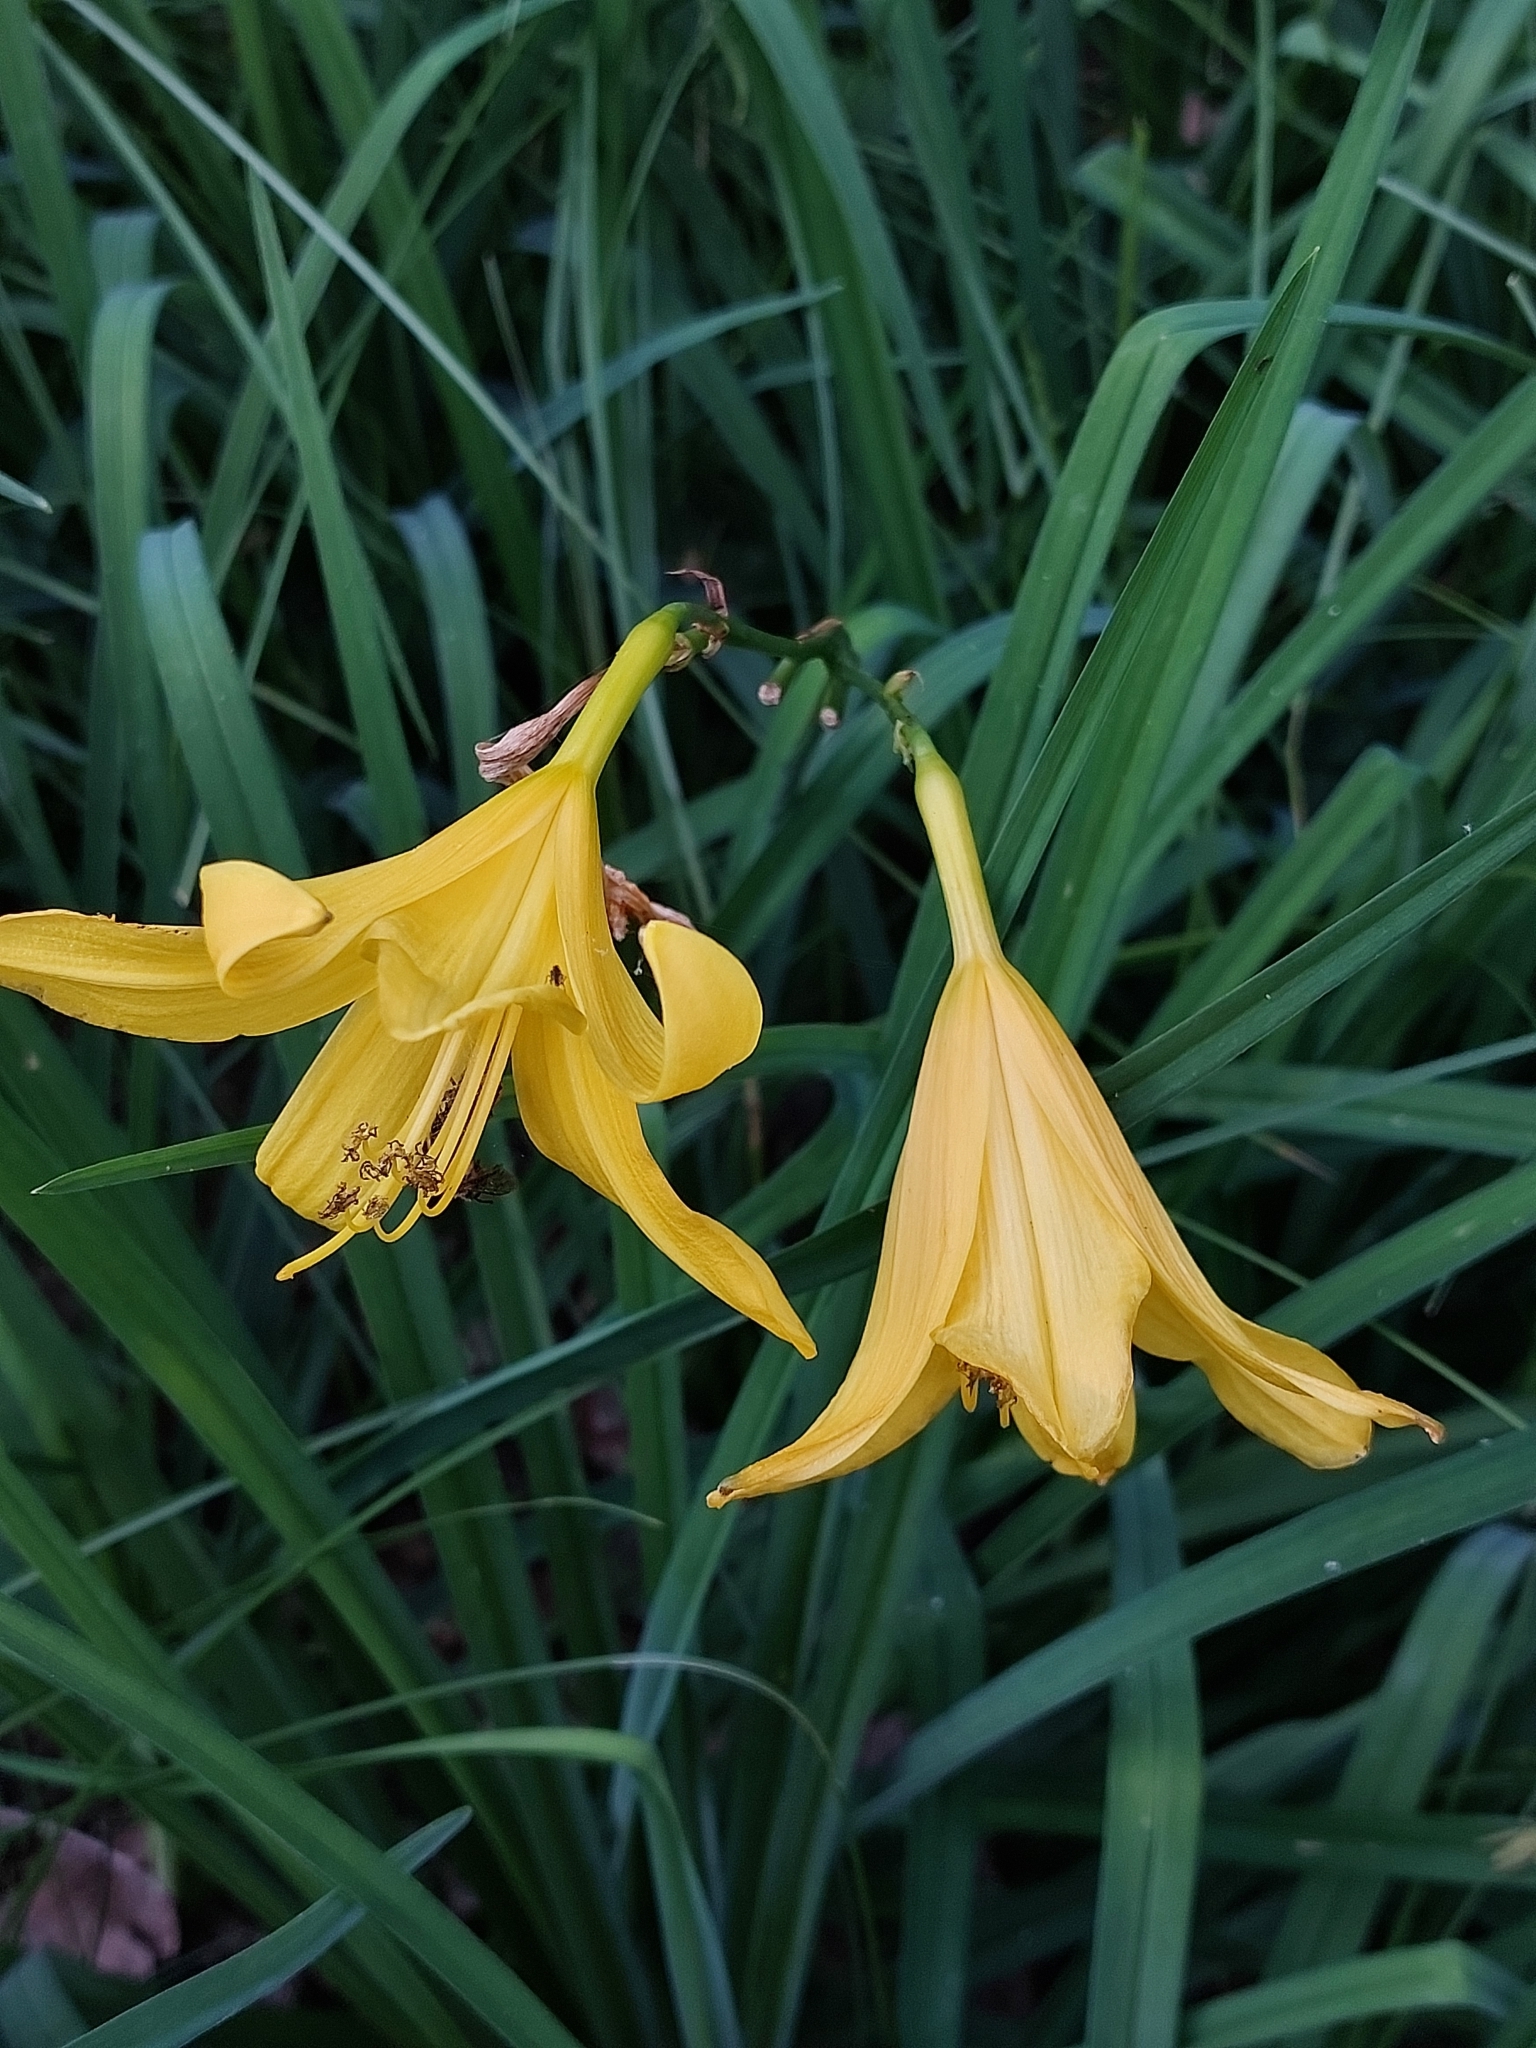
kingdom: Plantae
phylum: Tracheophyta
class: Liliopsida
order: Asparagales
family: Asphodelaceae
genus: Hemerocallis
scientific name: Hemerocallis lilioasphodelus
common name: Yellow day-lily
